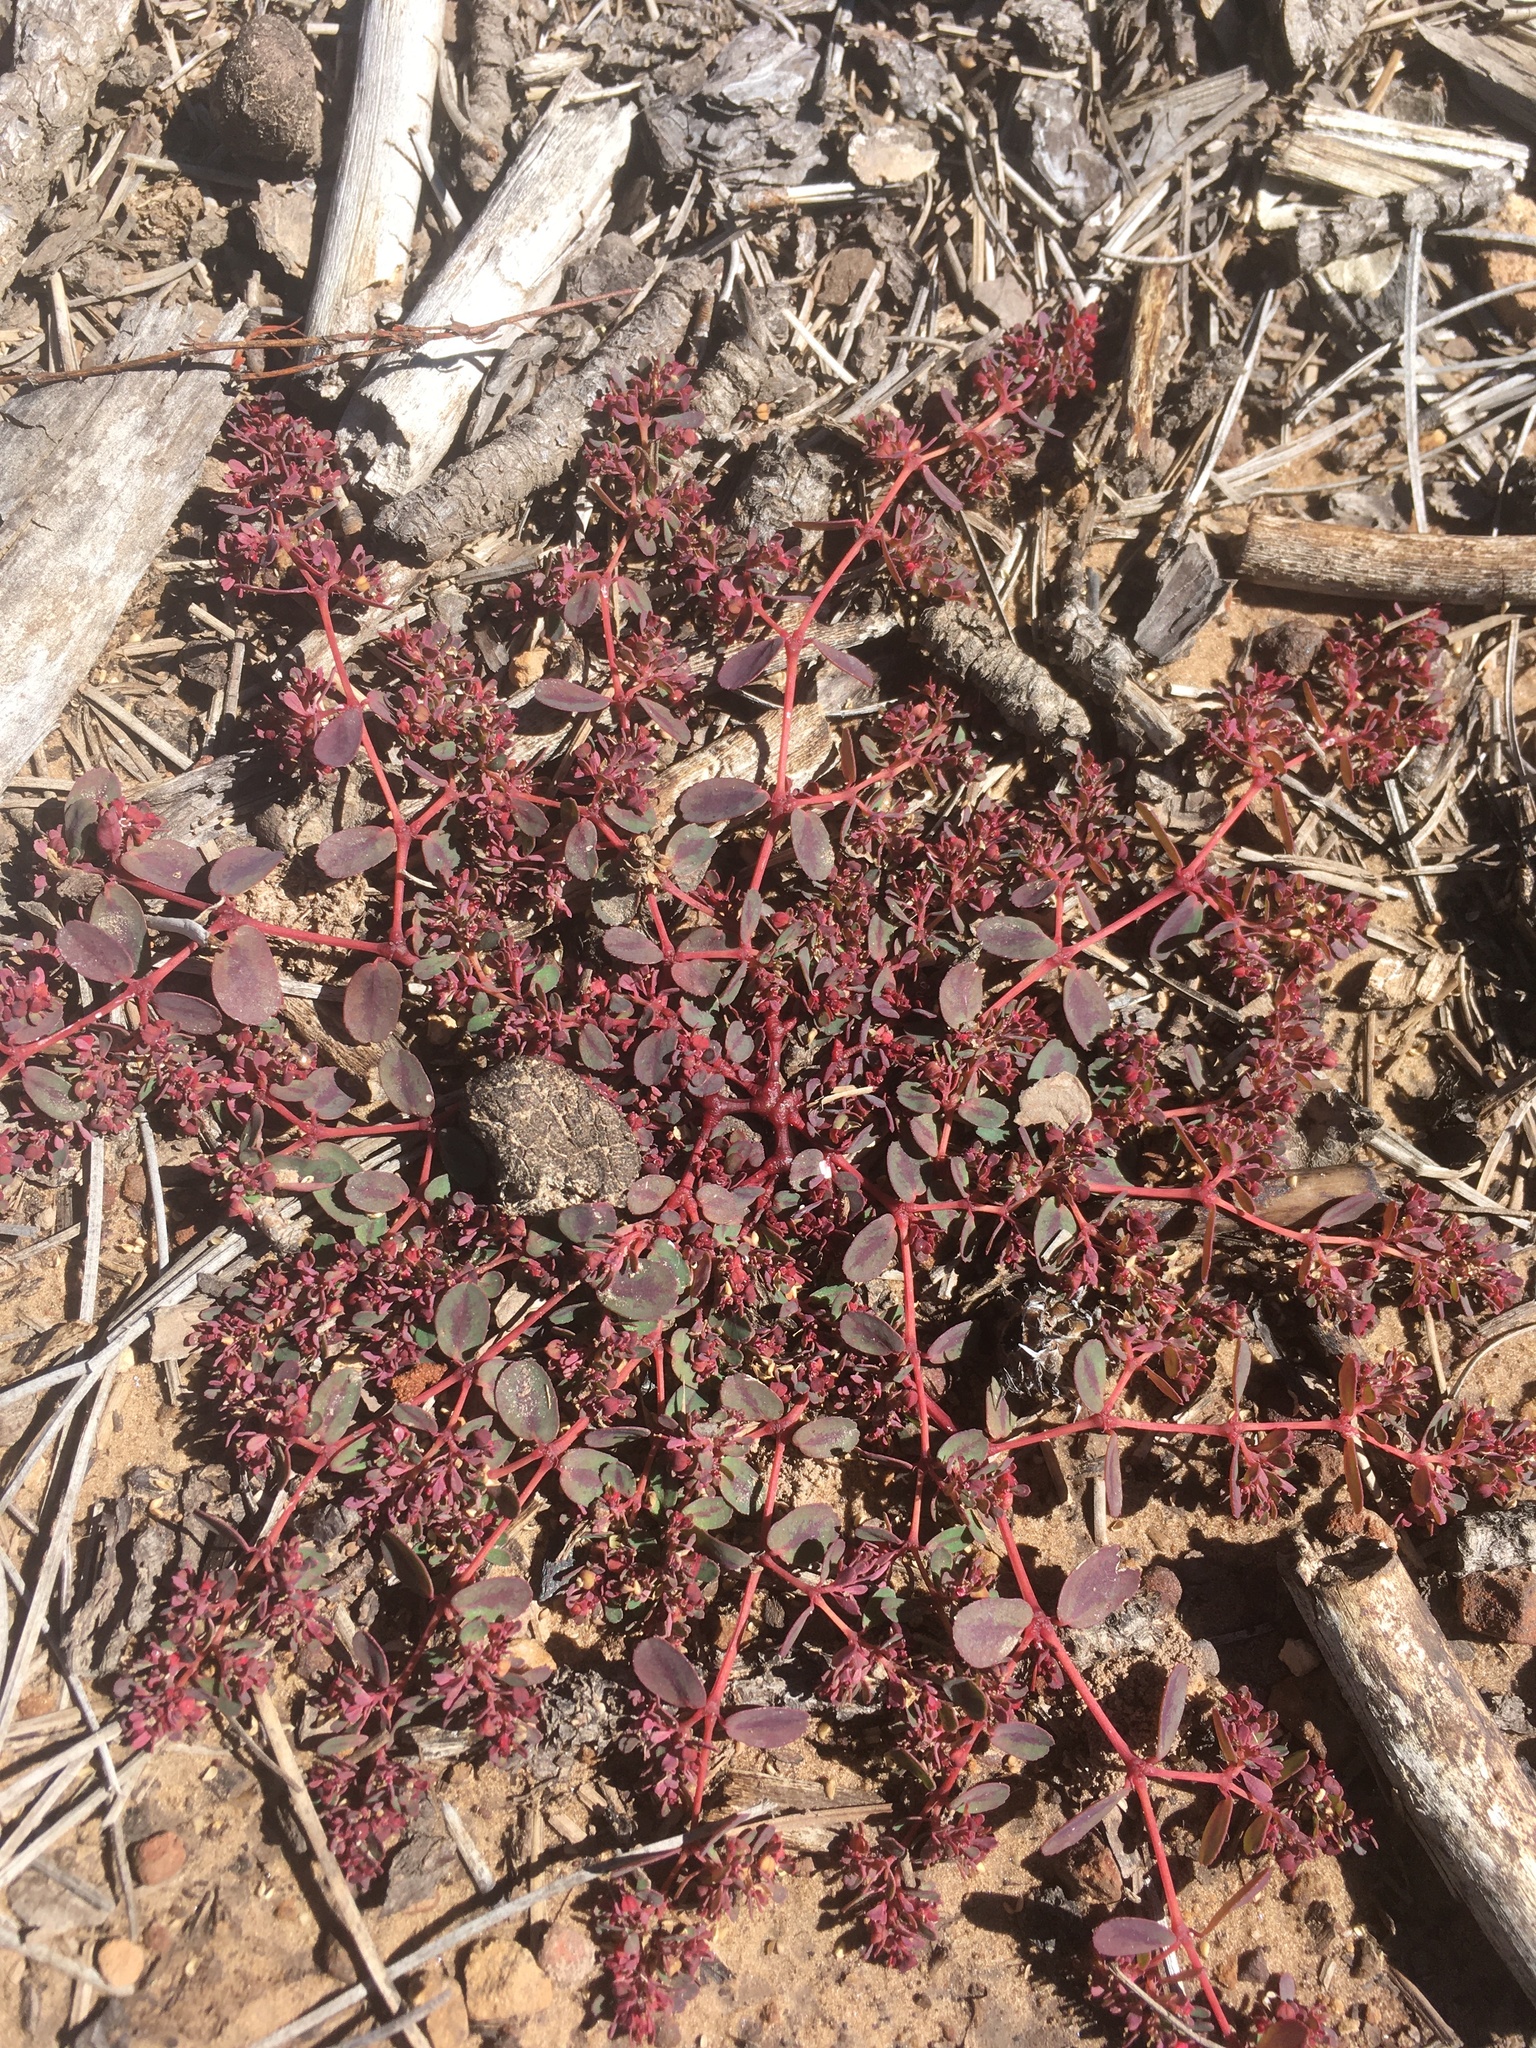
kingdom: Plantae
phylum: Tracheophyta
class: Magnoliopsida
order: Malpighiales
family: Euphorbiaceae
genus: Euphorbia
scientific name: Euphorbia serpillifolia
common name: Thyme-leaf spurge
